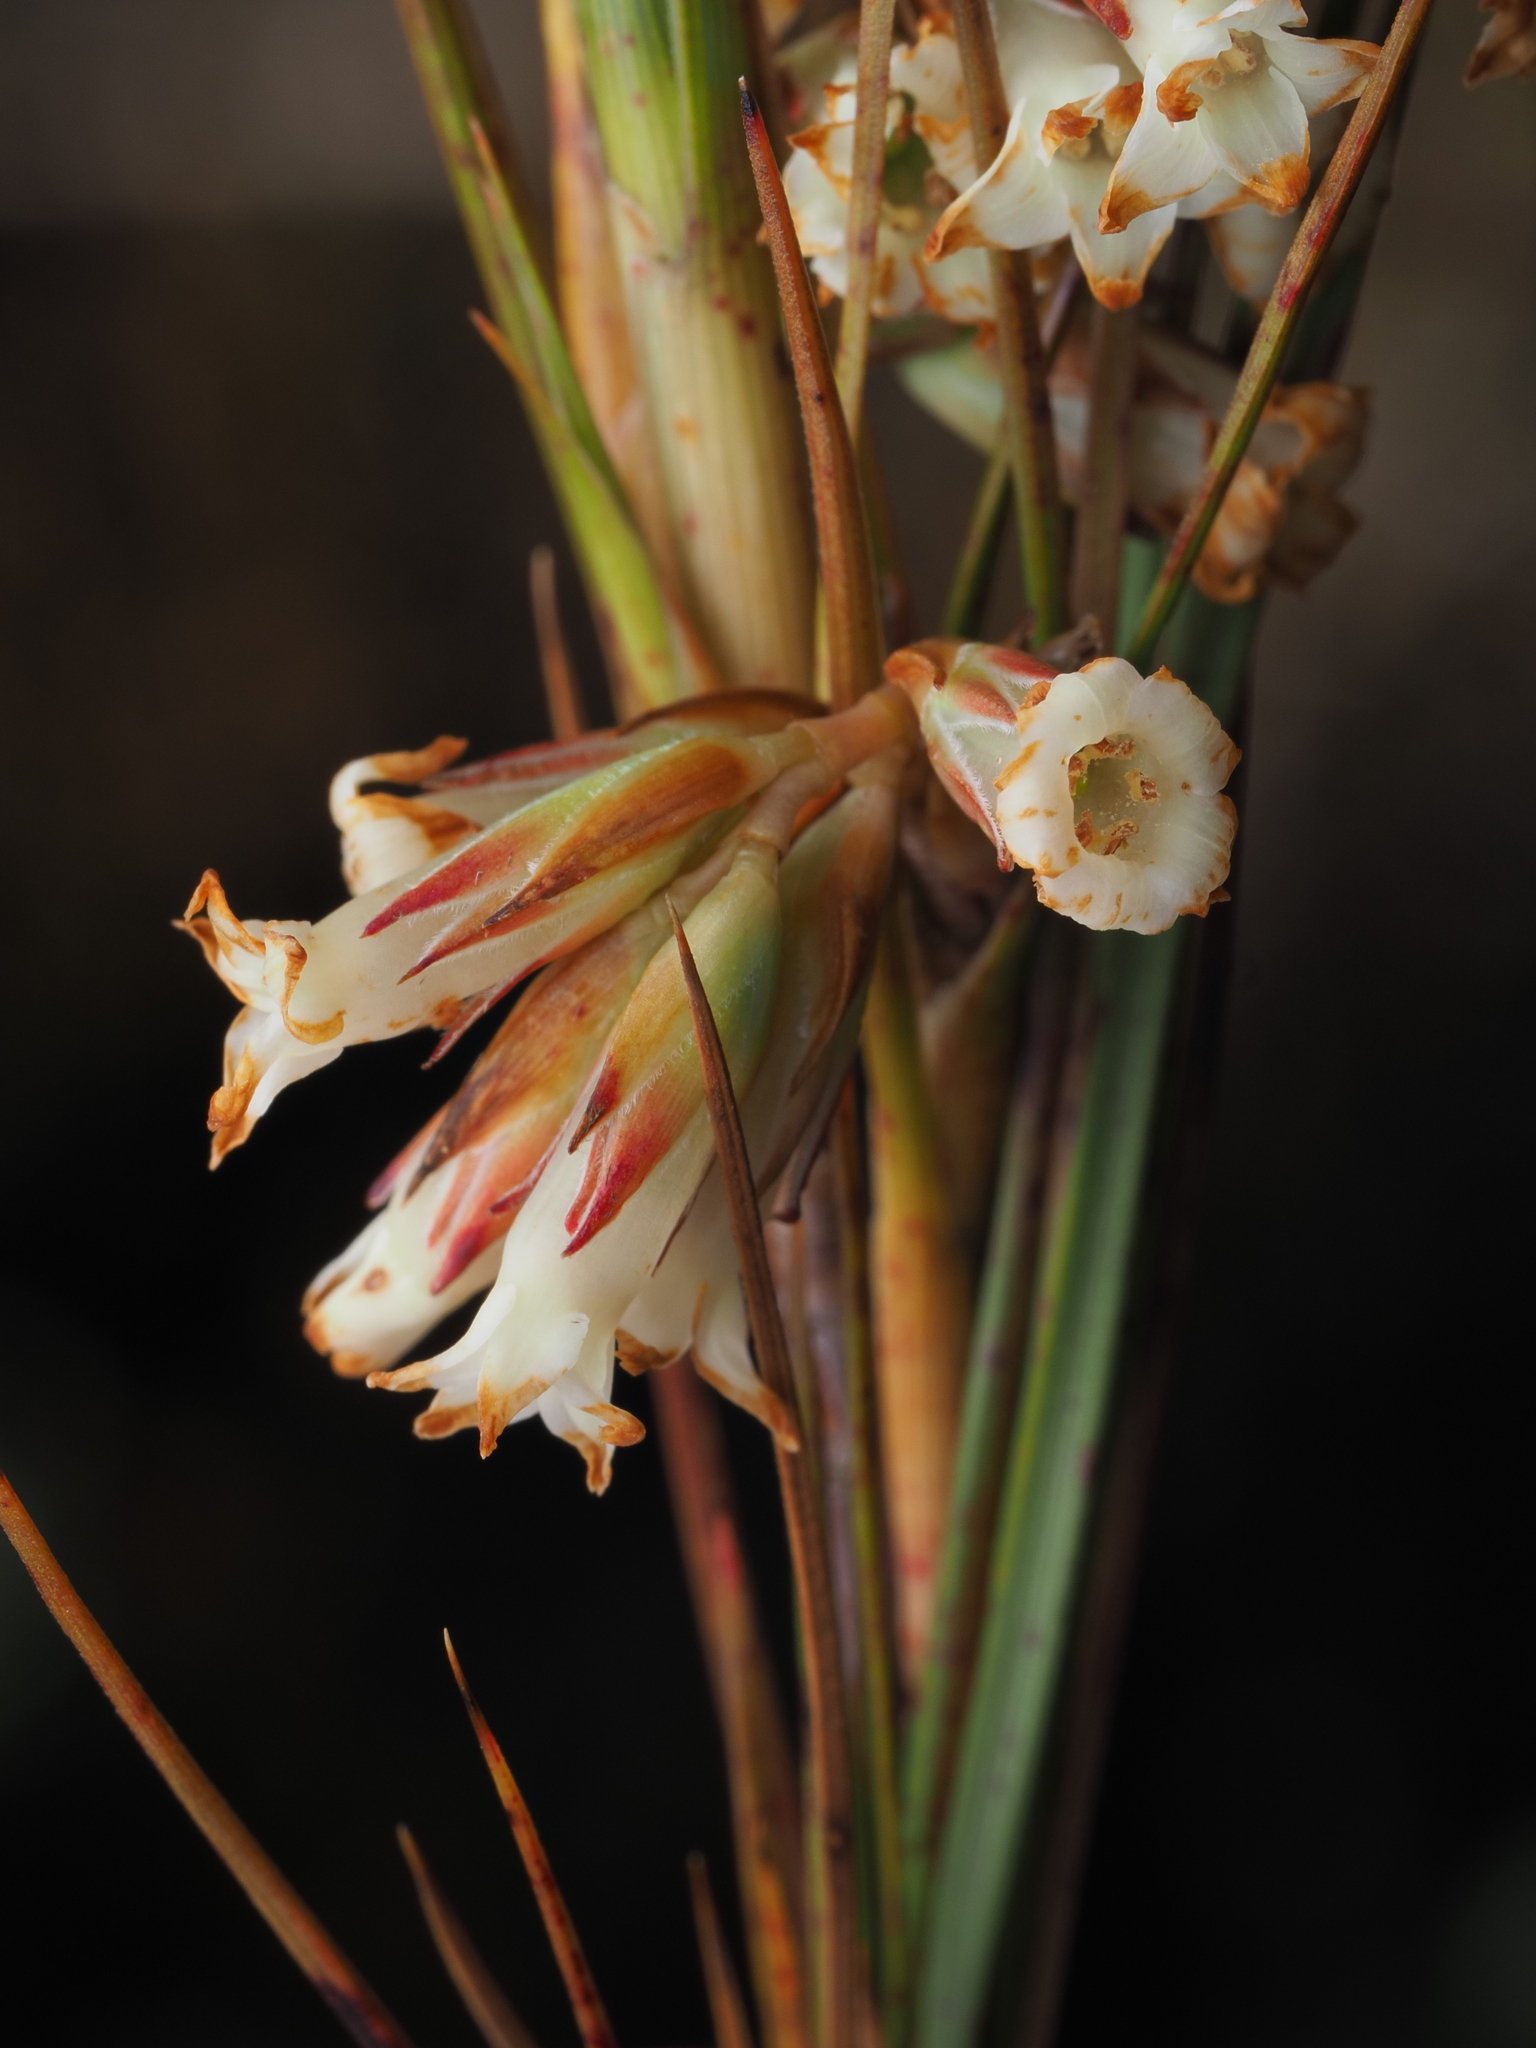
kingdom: Plantae
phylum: Tracheophyta
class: Magnoliopsida
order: Ericales
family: Ericaceae
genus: Dracophyllum
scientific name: Dracophyllum longifolium
